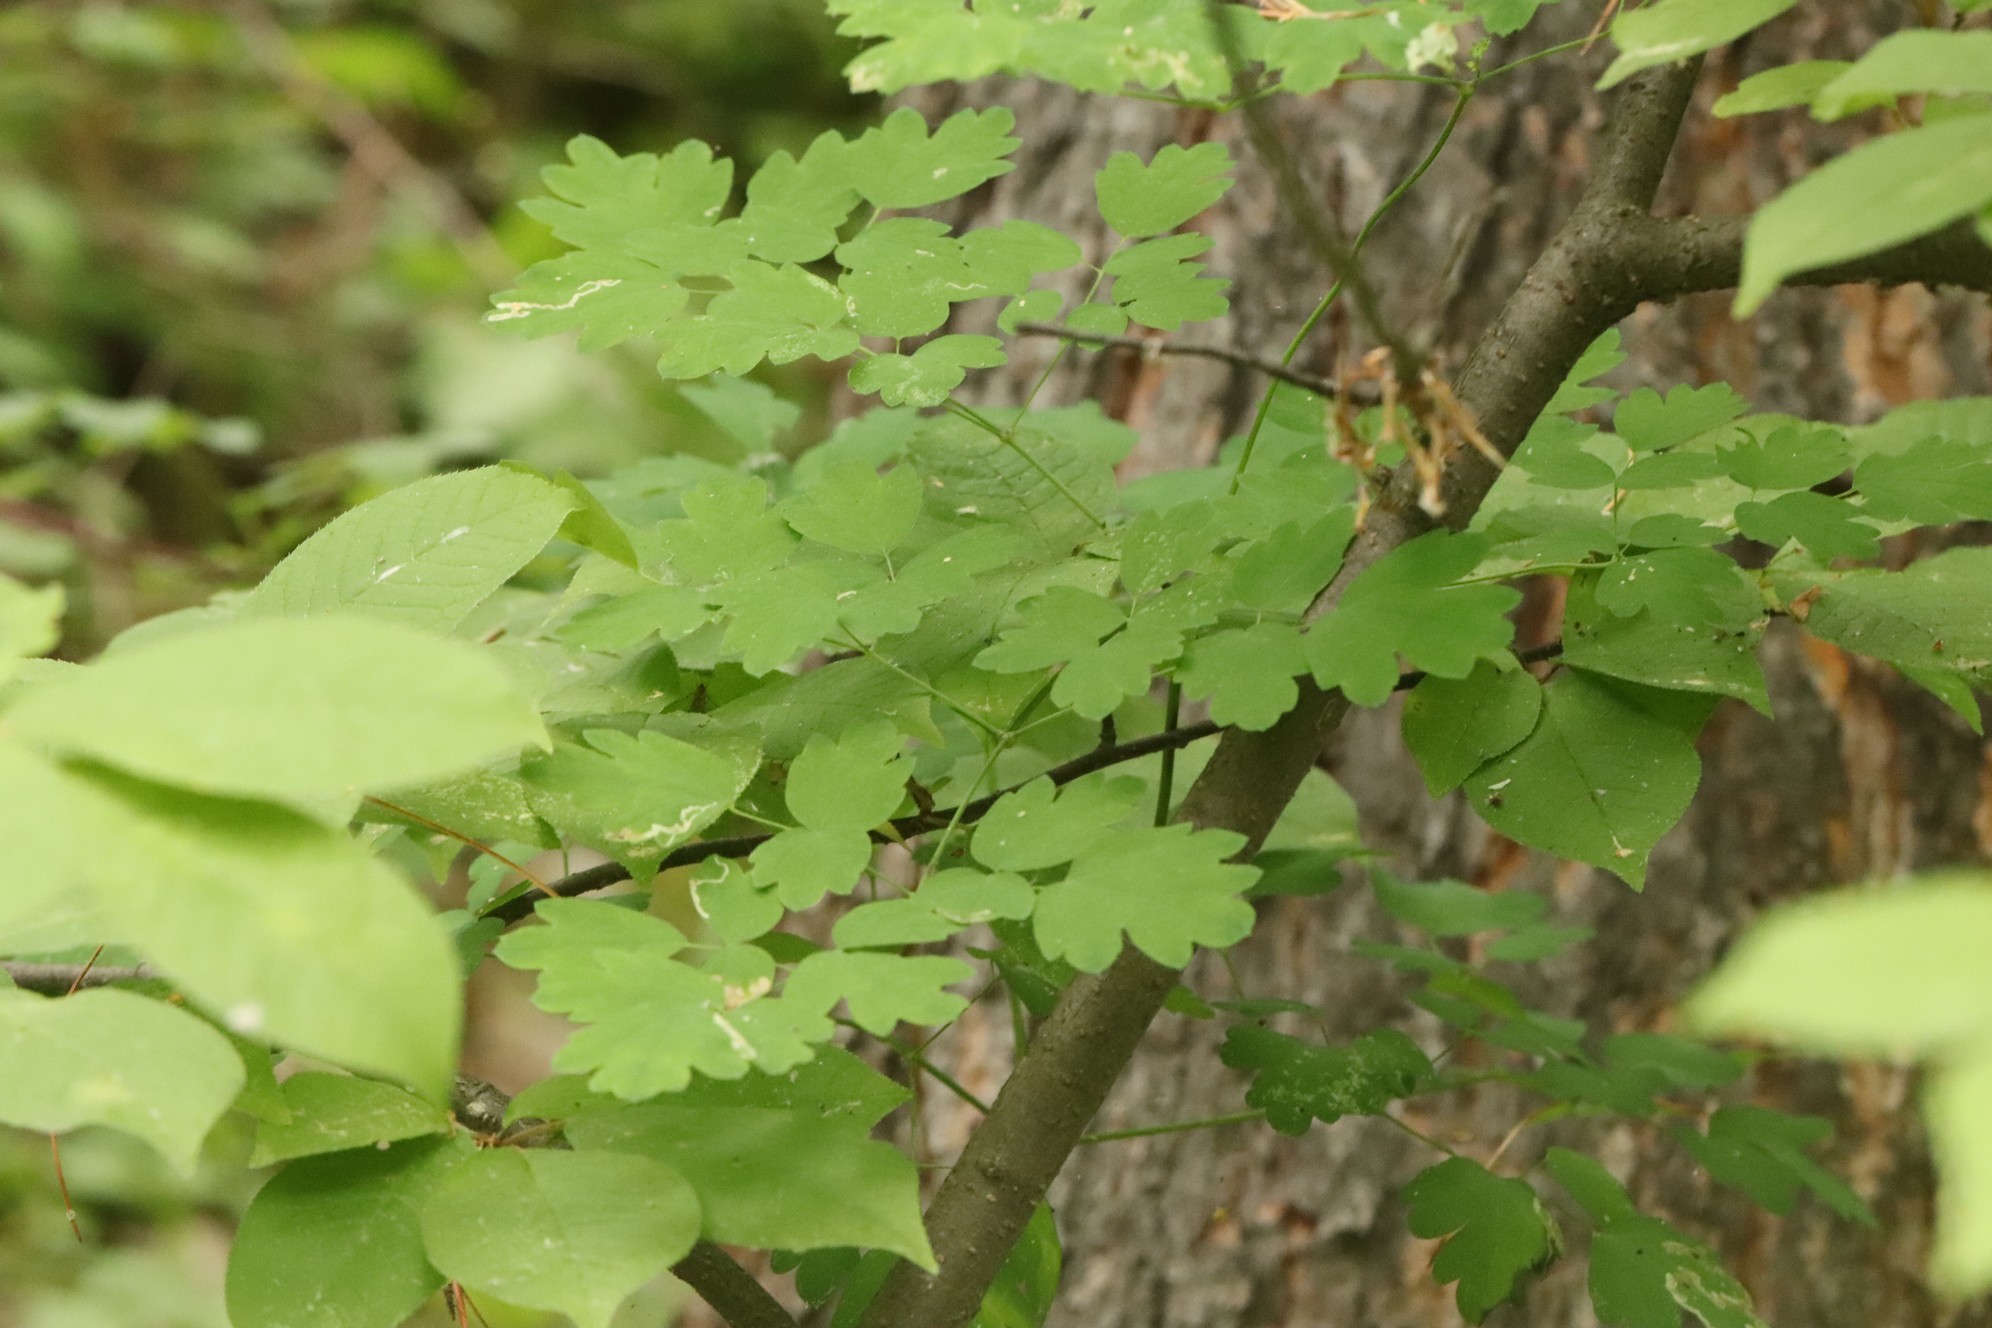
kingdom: Plantae
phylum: Tracheophyta
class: Magnoliopsida
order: Ranunculales
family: Ranunculaceae
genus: Thalictrum
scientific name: Thalictrum minus
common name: Lesser meadow-rue
